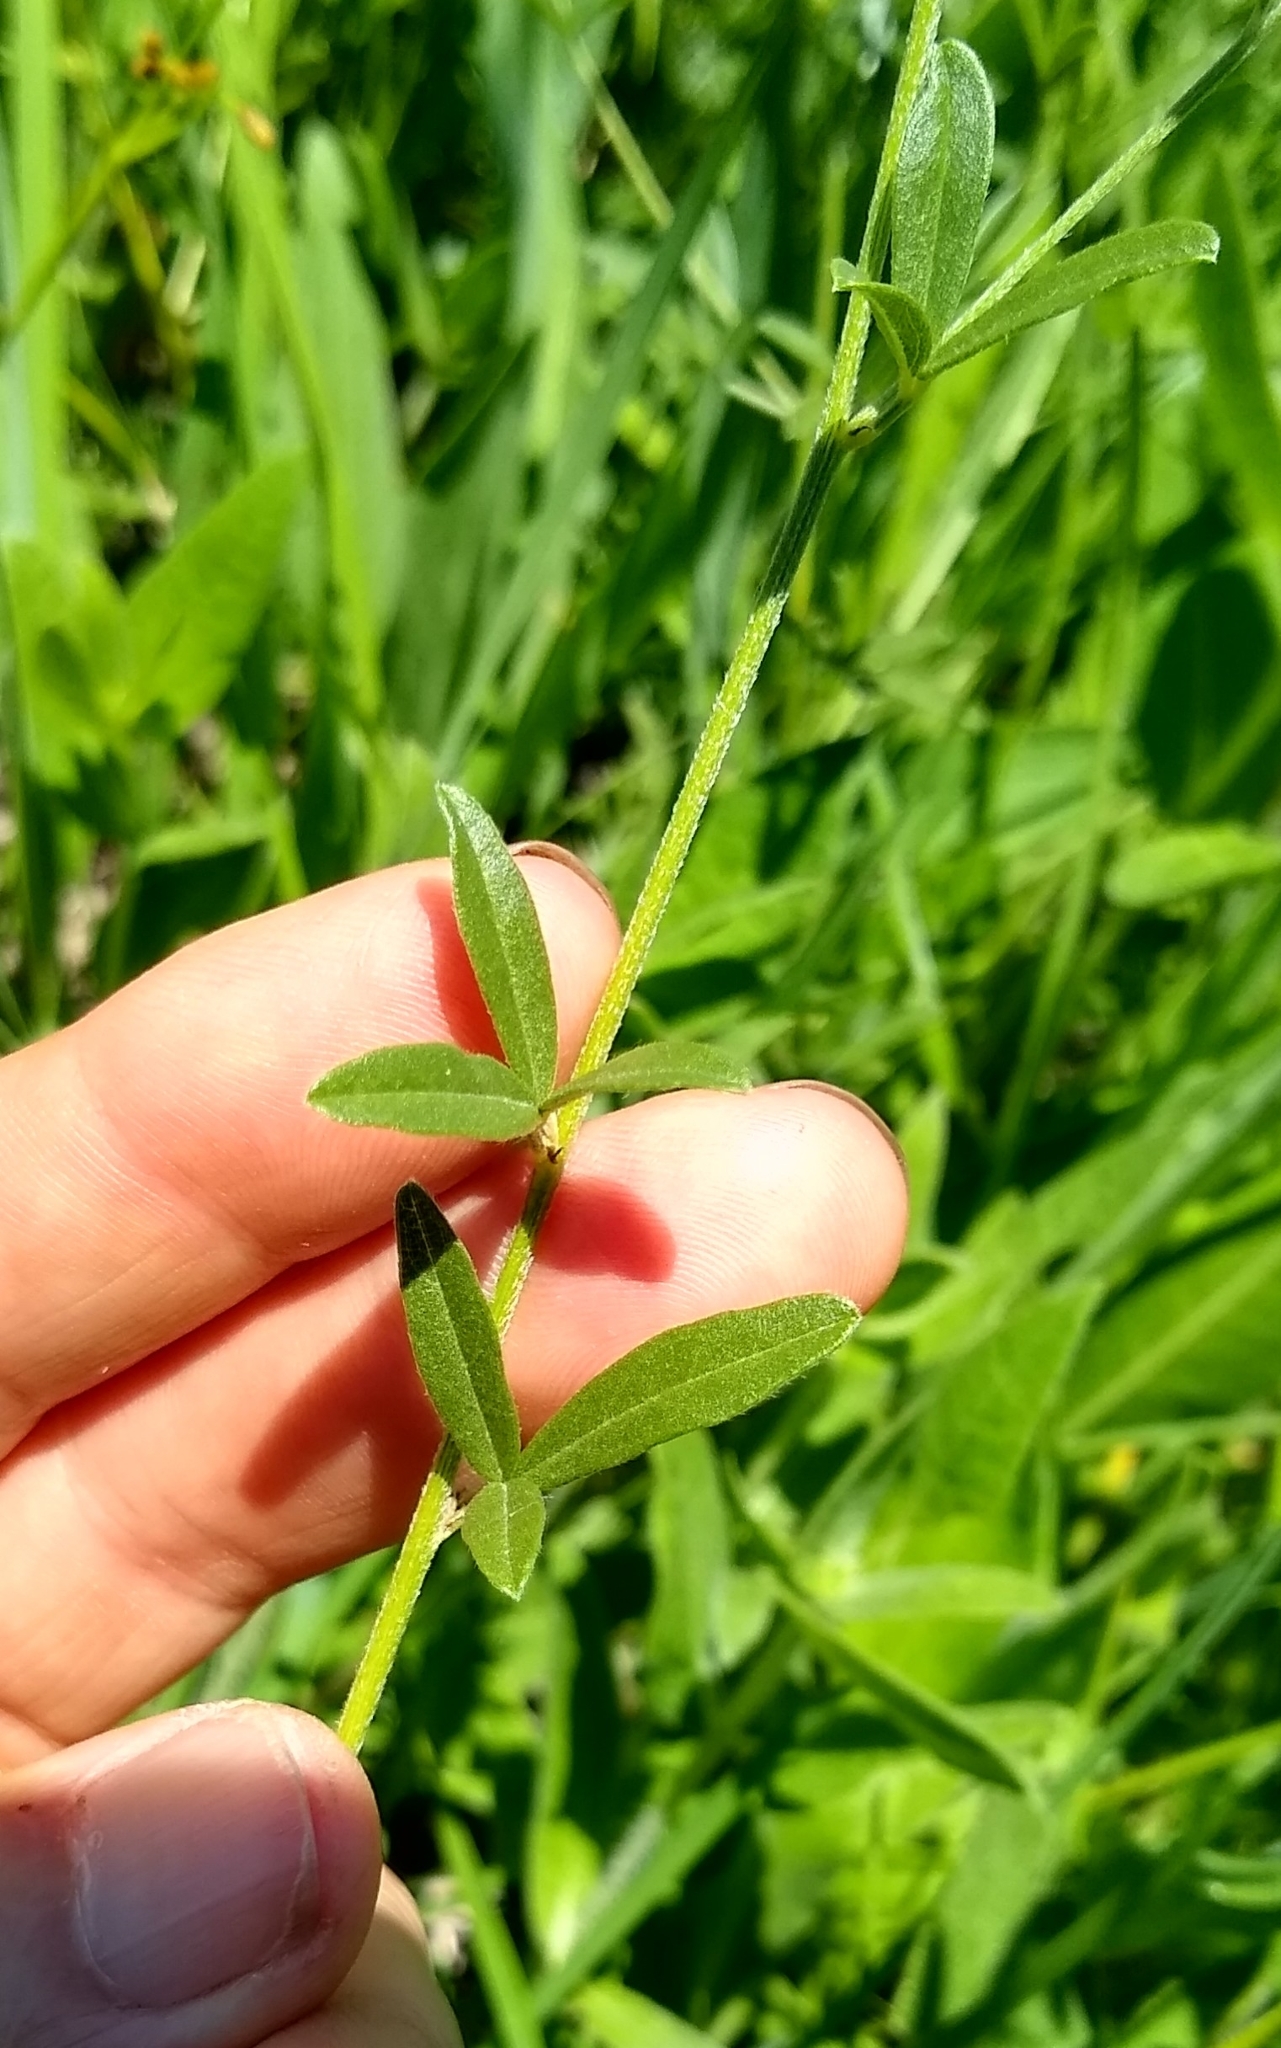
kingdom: Plantae
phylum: Tracheophyta
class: Magnoliopsida
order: Fabales
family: Fabaceae
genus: Pediomelum
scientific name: Pediomelum tenuiflorum
